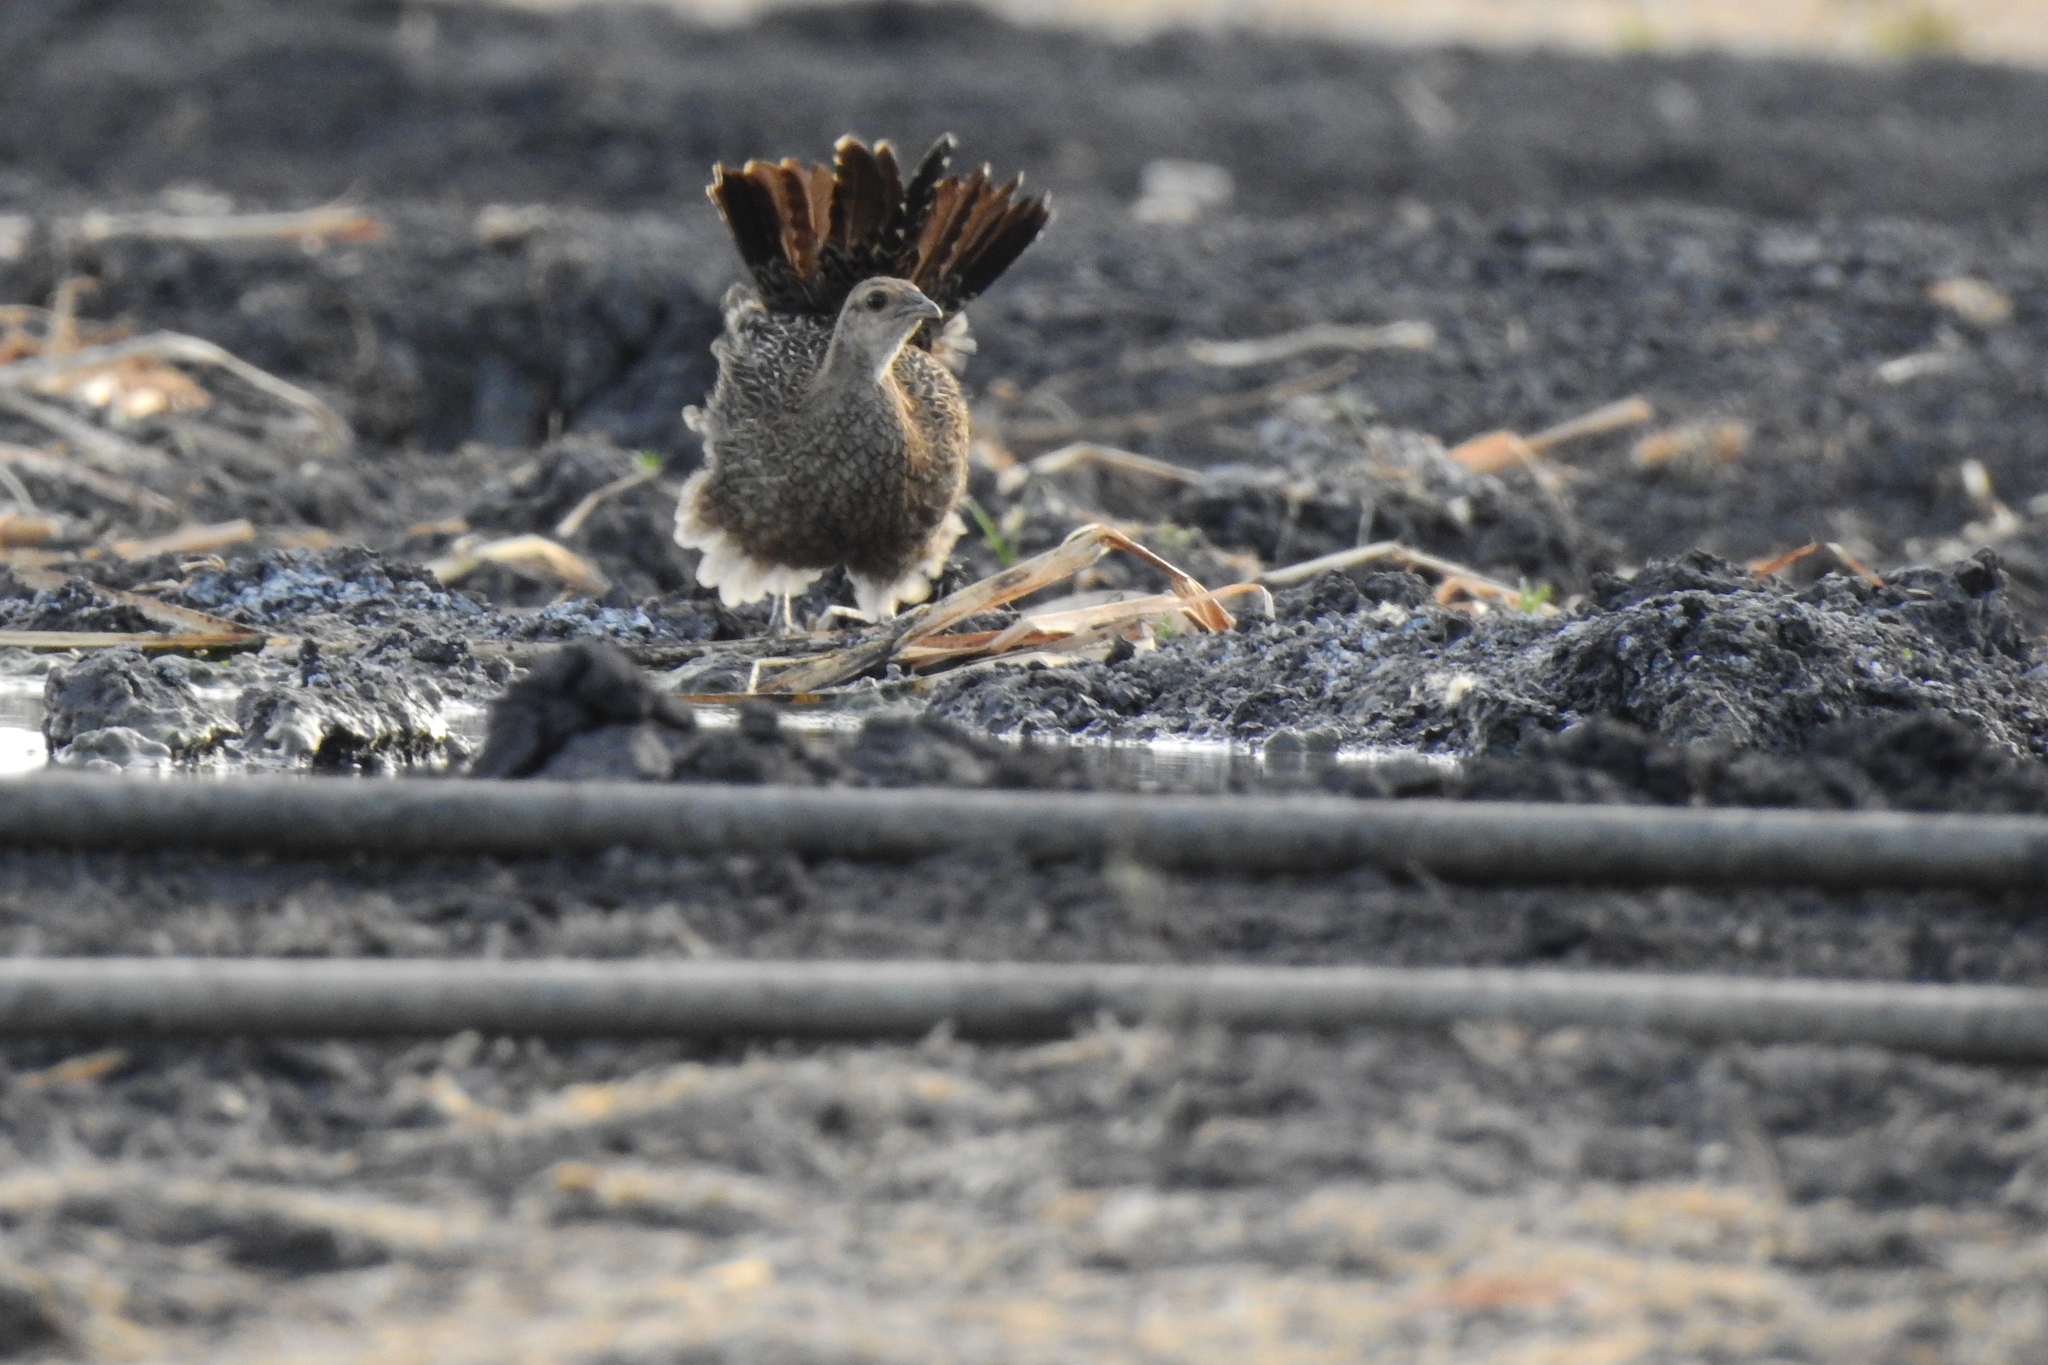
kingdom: Animalia
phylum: Chordata
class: Aves
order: Galliformes
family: Phasianidae
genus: Gallus
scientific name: Gallus varius
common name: Green junglefowl
